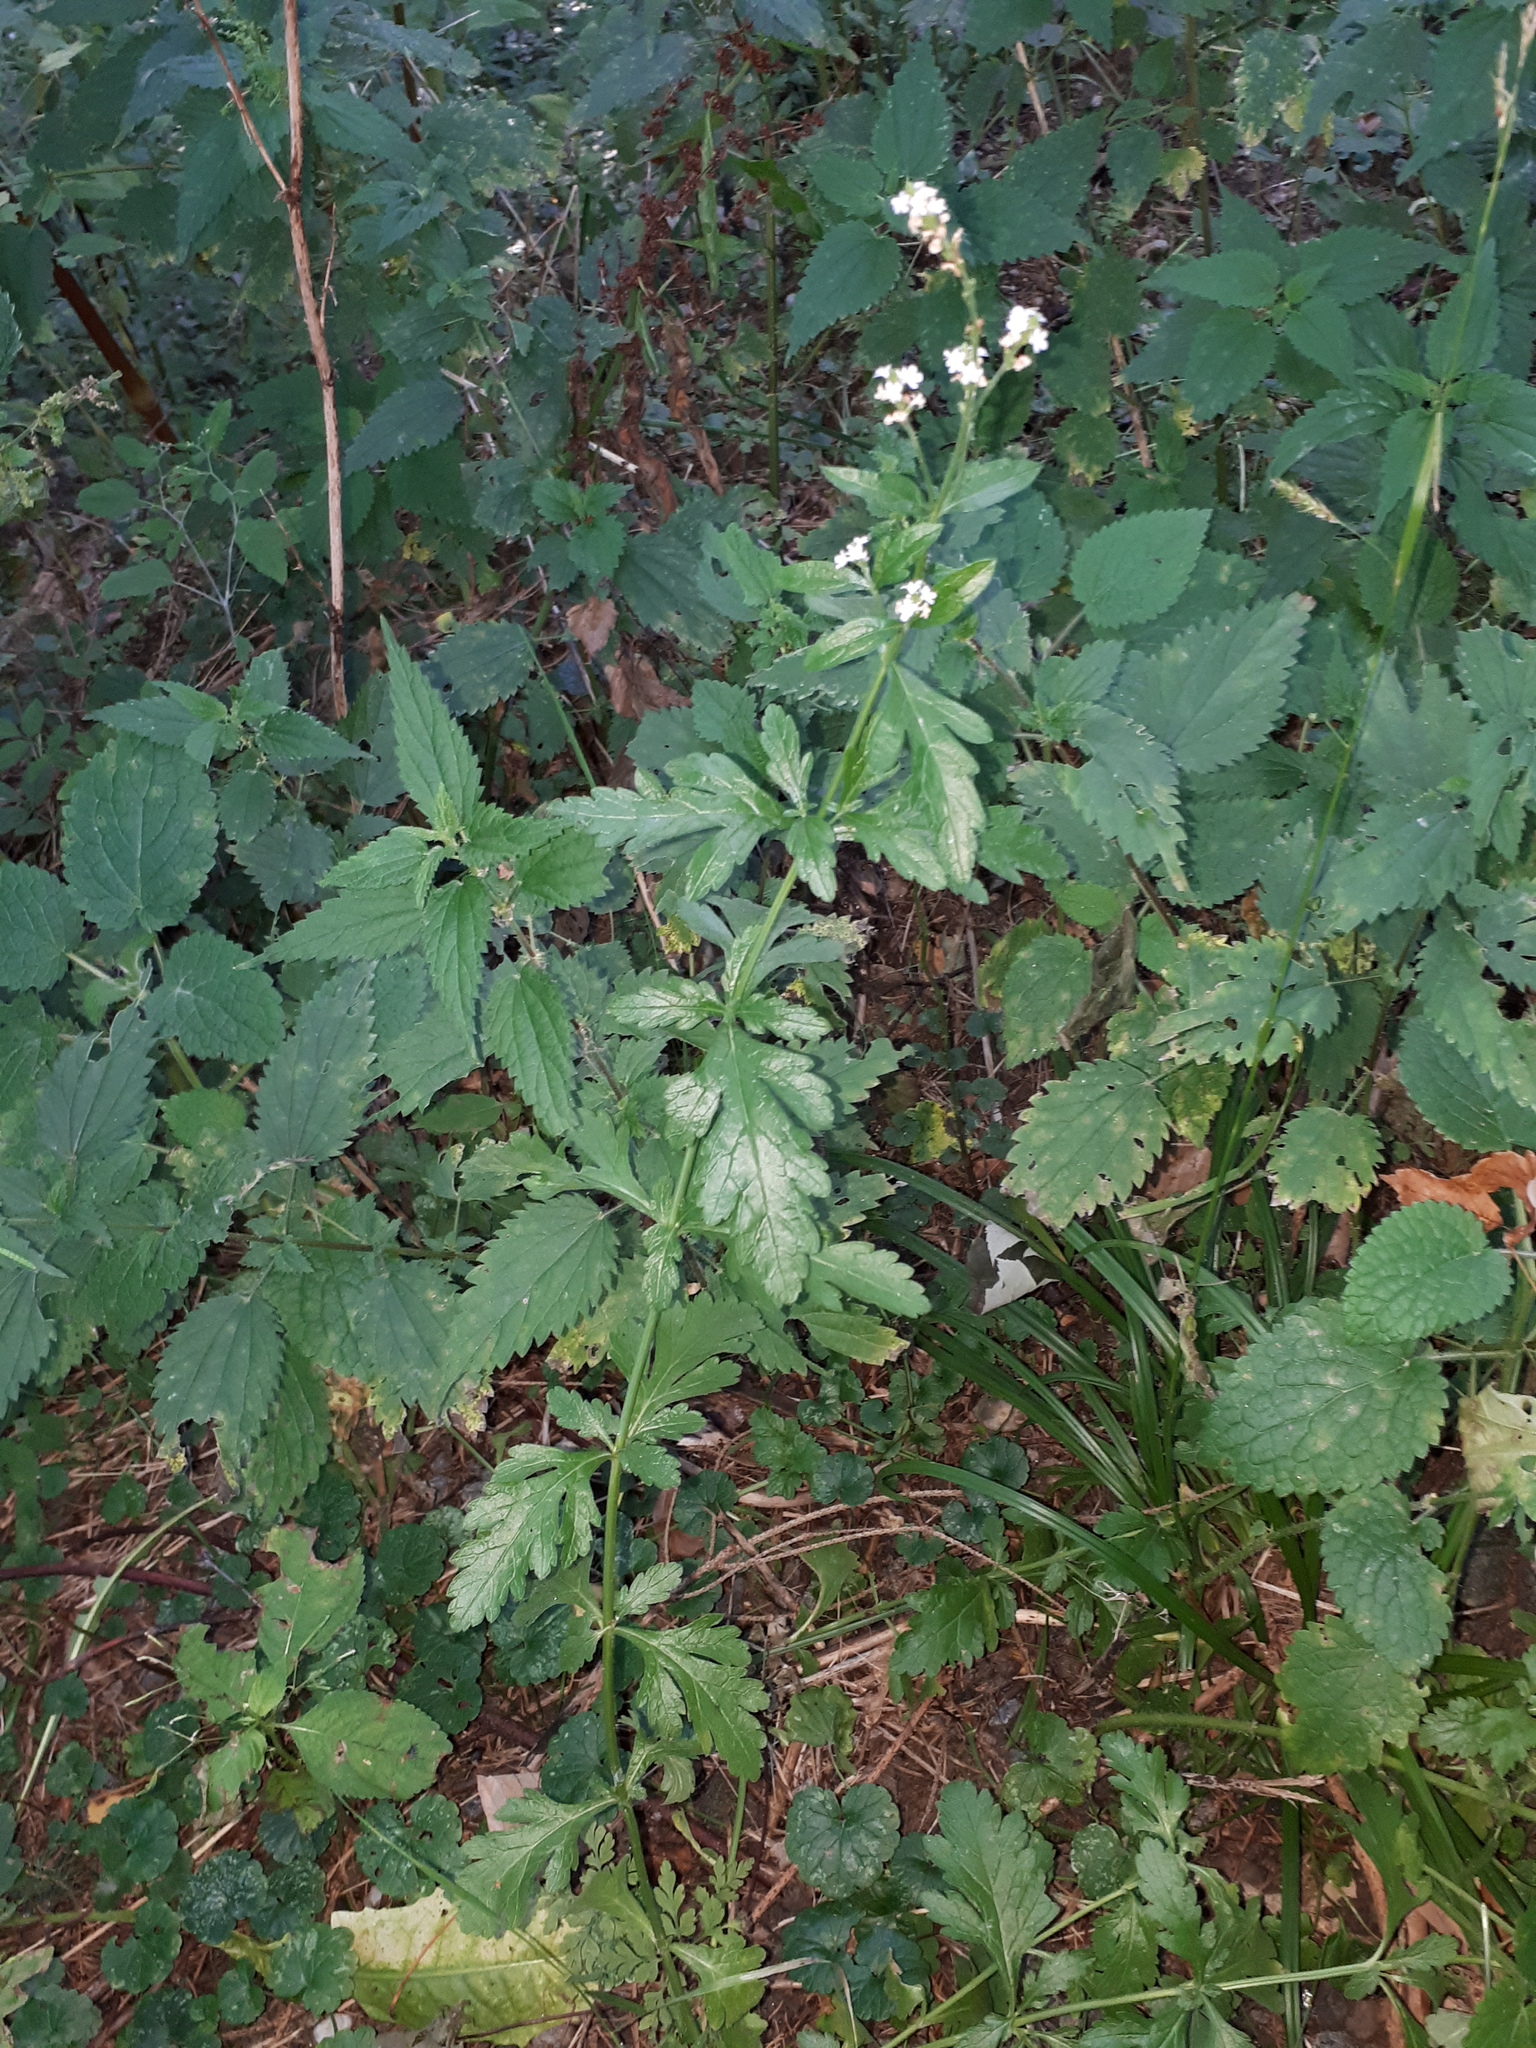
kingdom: Plantae
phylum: Tracheophyta
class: Magnoliopsida
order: Lamiales
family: Verbenaceae
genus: Verbena
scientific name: Verbena officinalis
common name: Vervain
